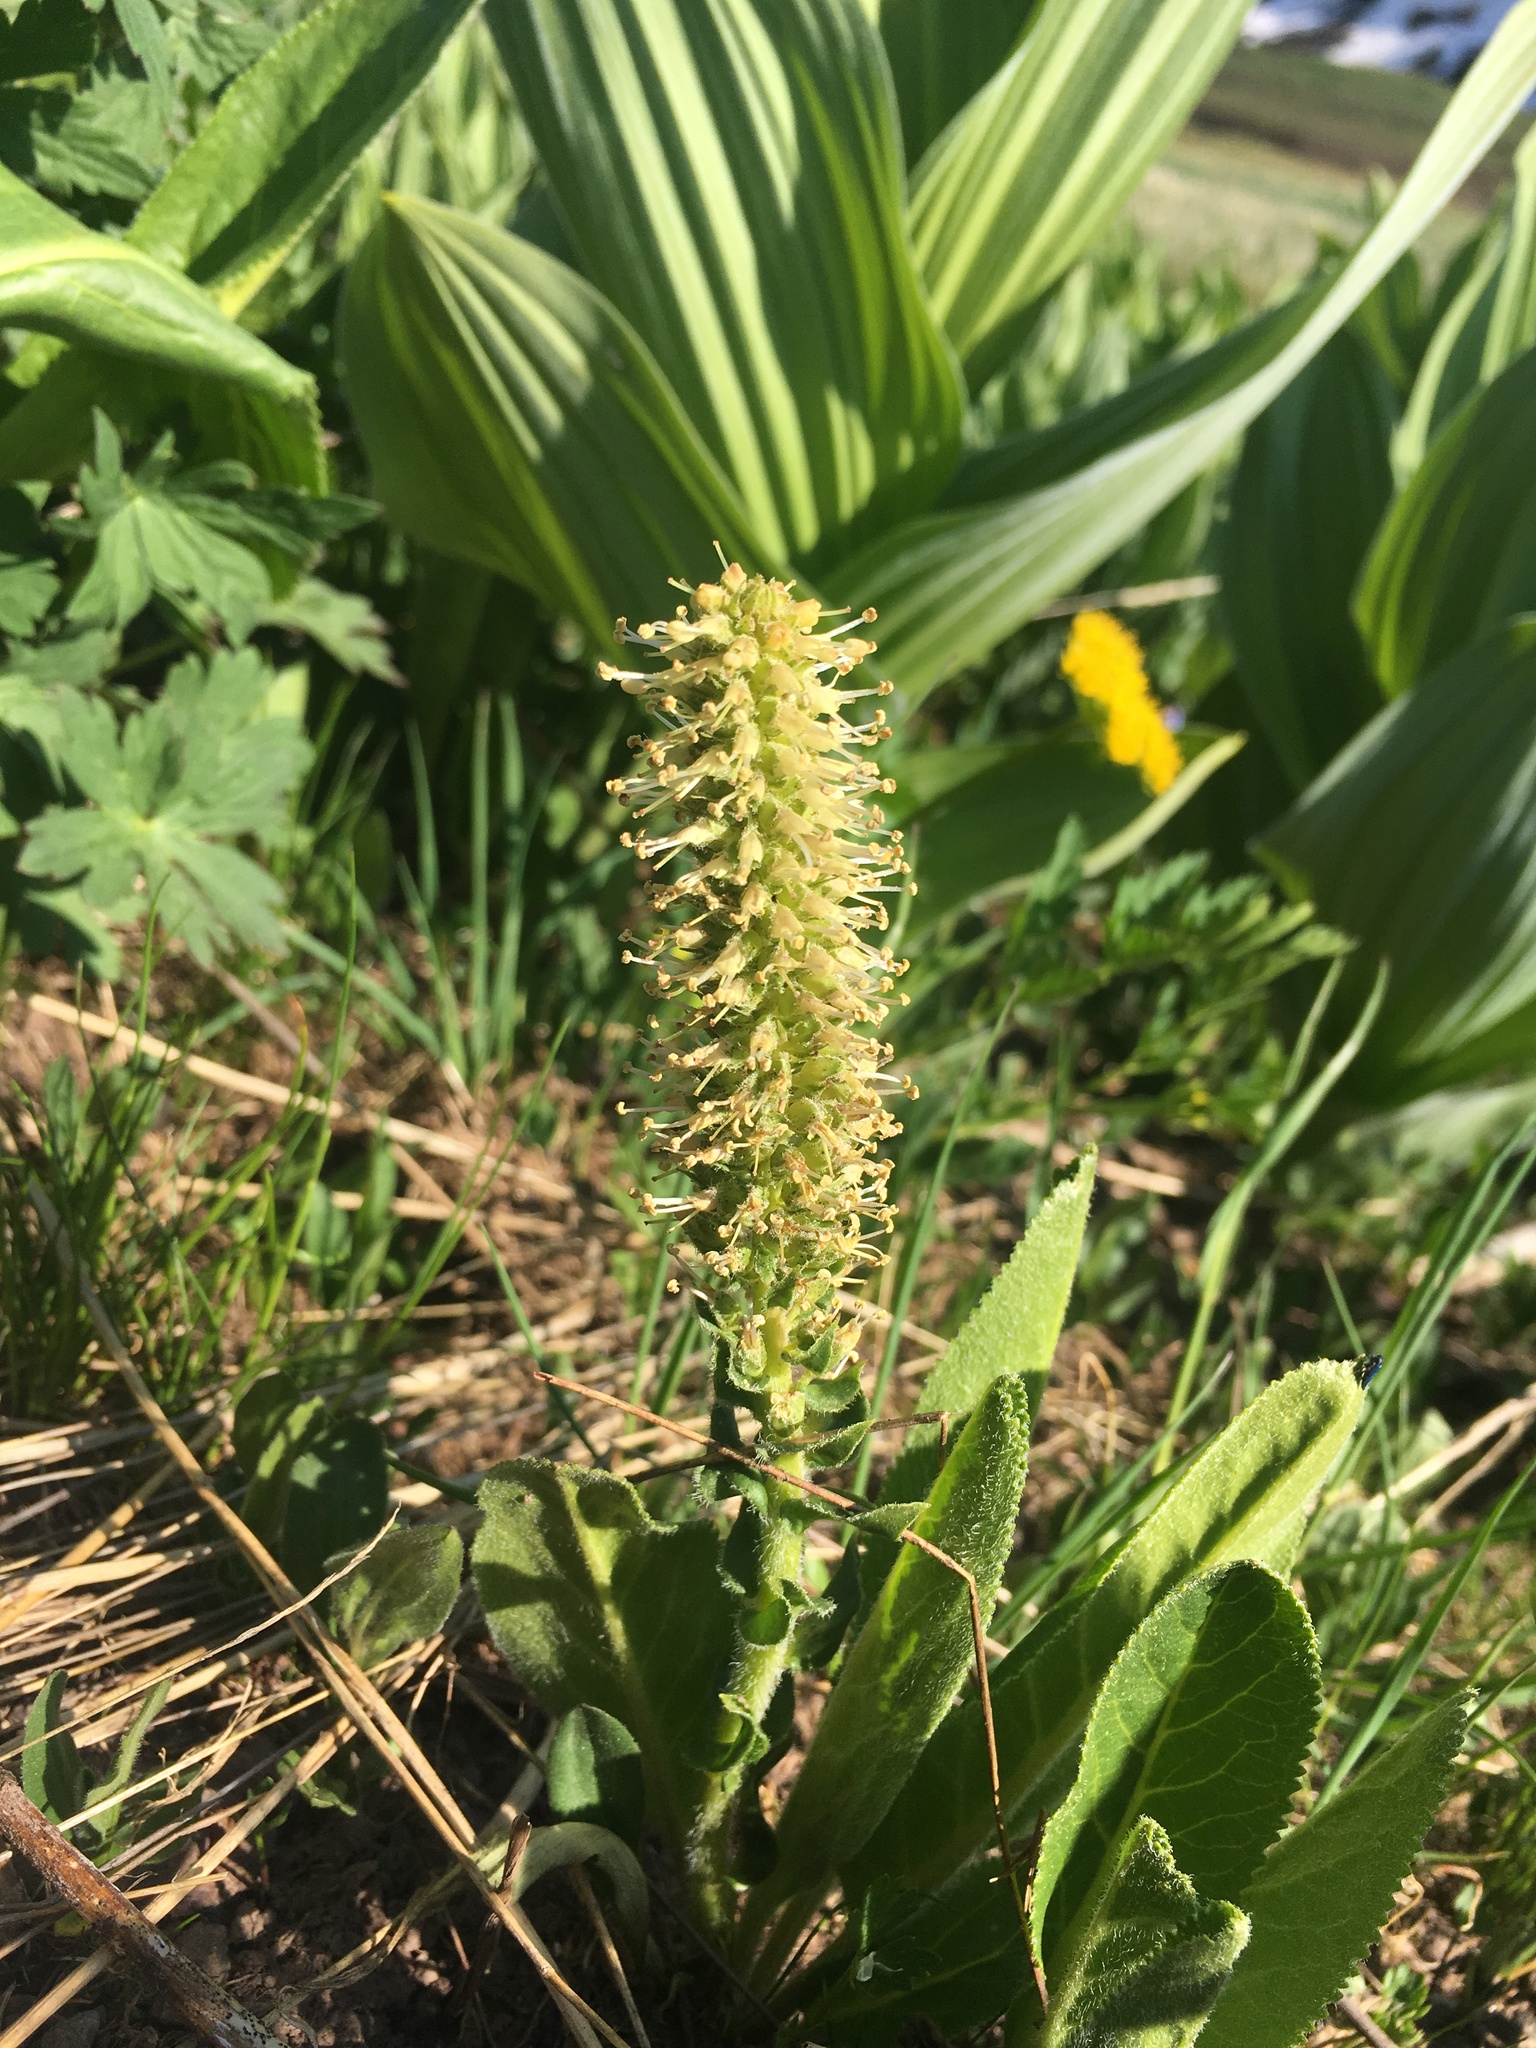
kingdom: Plantae
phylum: Tracheophyta
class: Magnoliopsida
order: Lamiales
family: Plantaginaceae
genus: Synthyris
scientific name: Synthyris ritteriana
